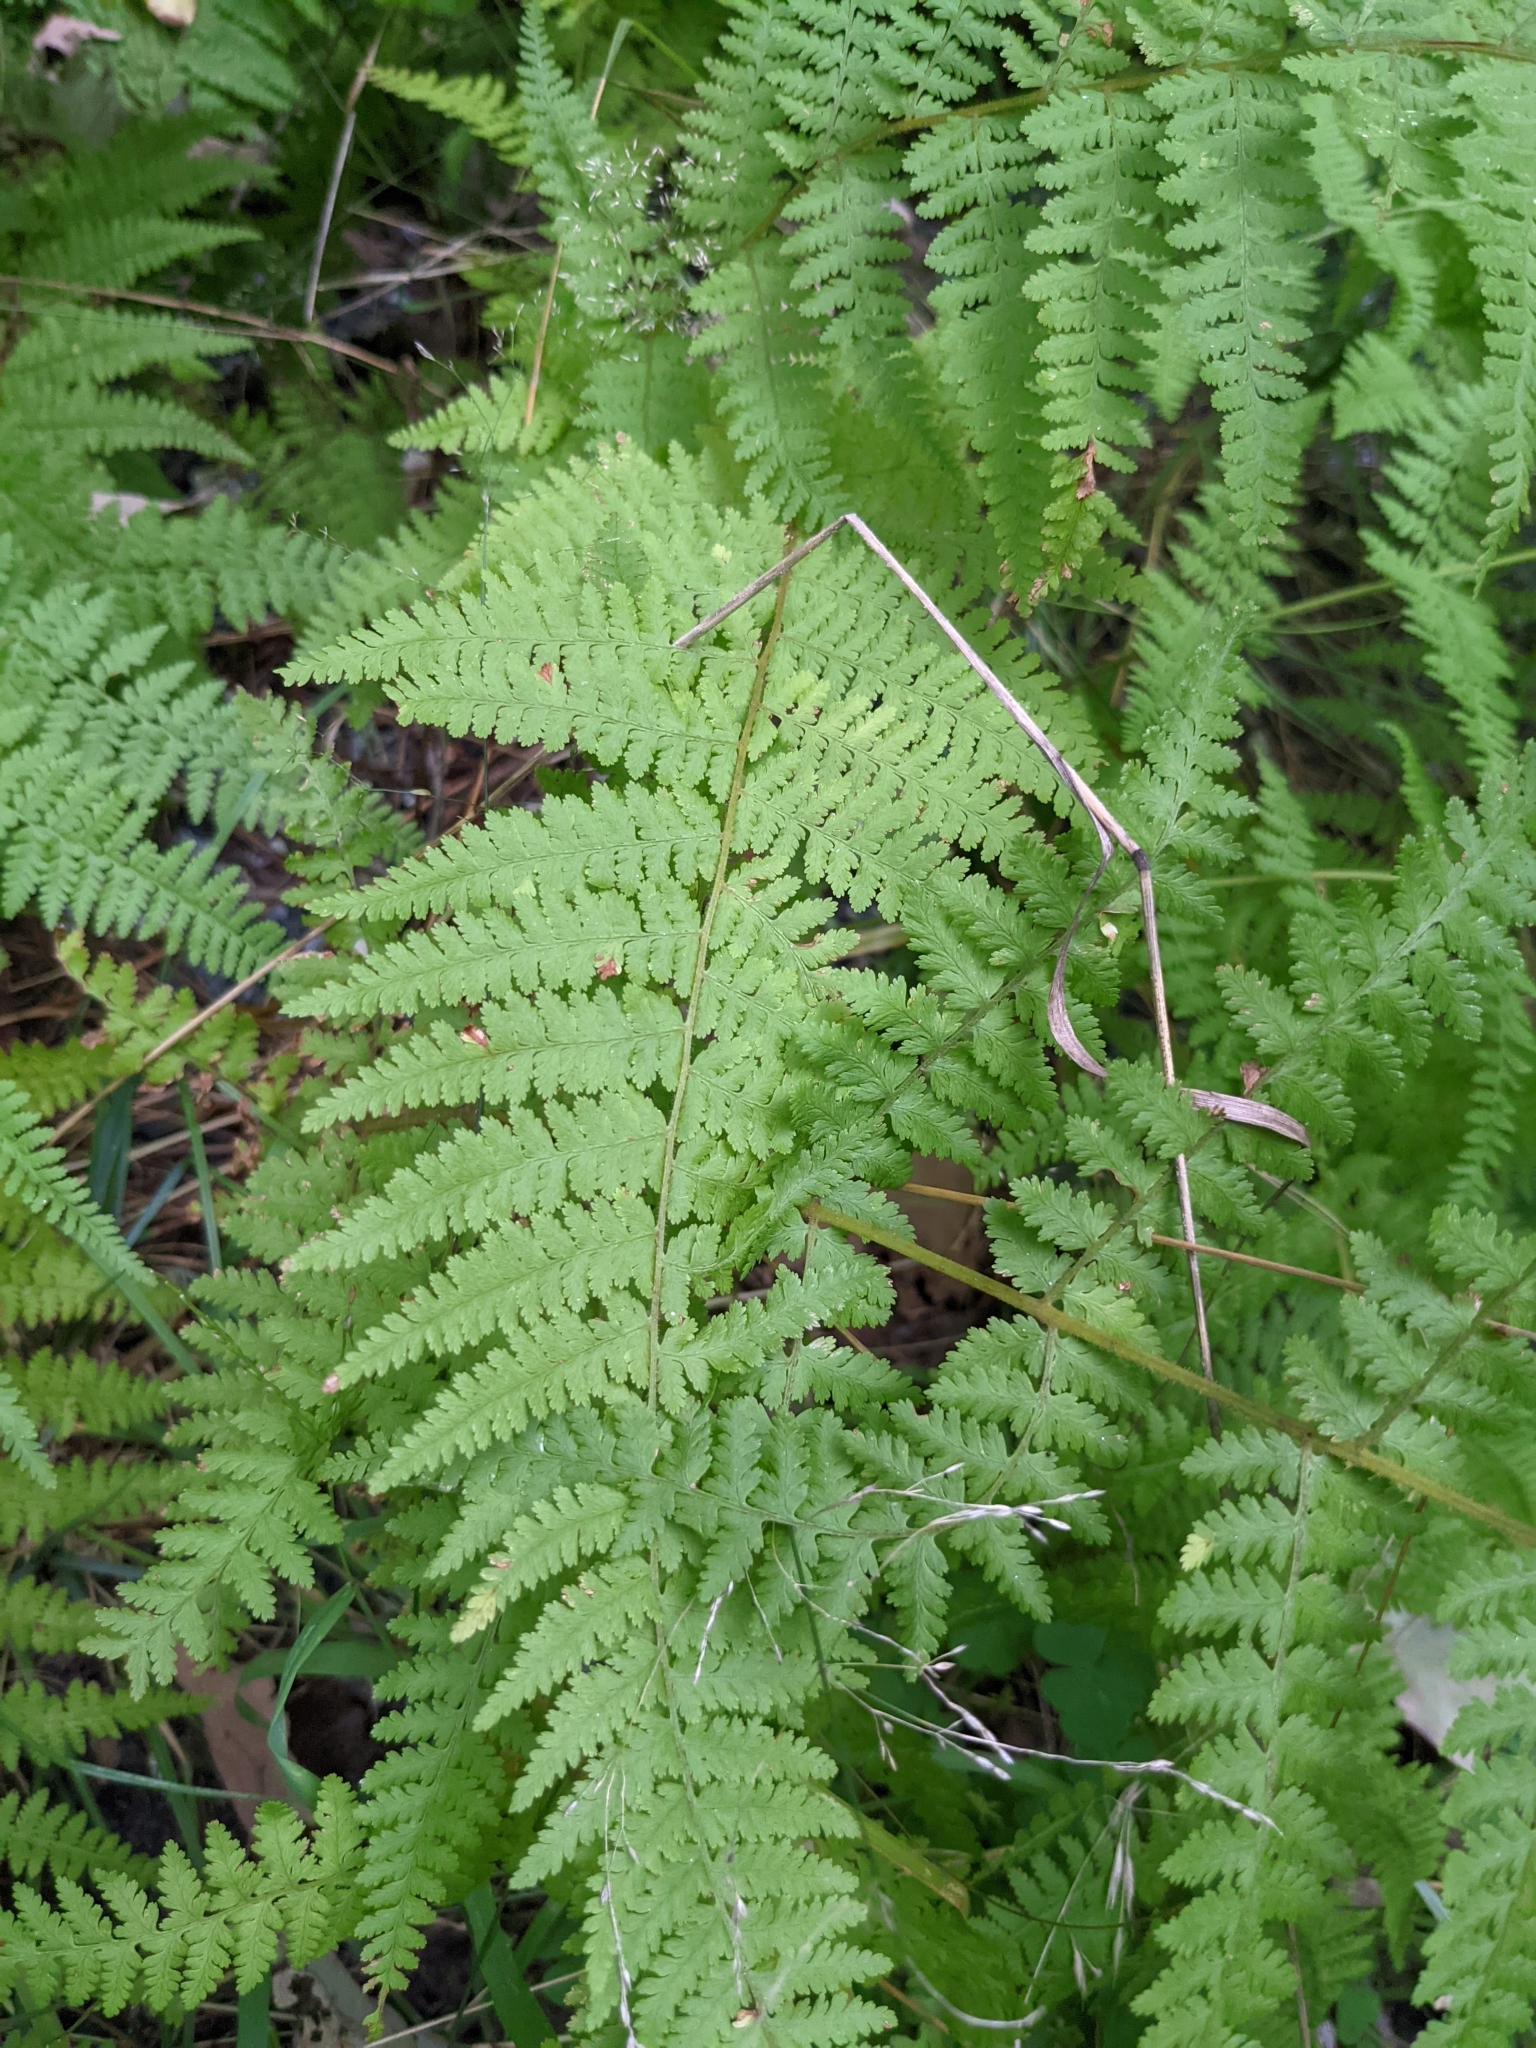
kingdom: Plantae
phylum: Tracheophyta
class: Polypodiopsida
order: Polypodiales
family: Dennstaedtiaceae
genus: Sitobolium
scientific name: Sitobolium punctilobum
